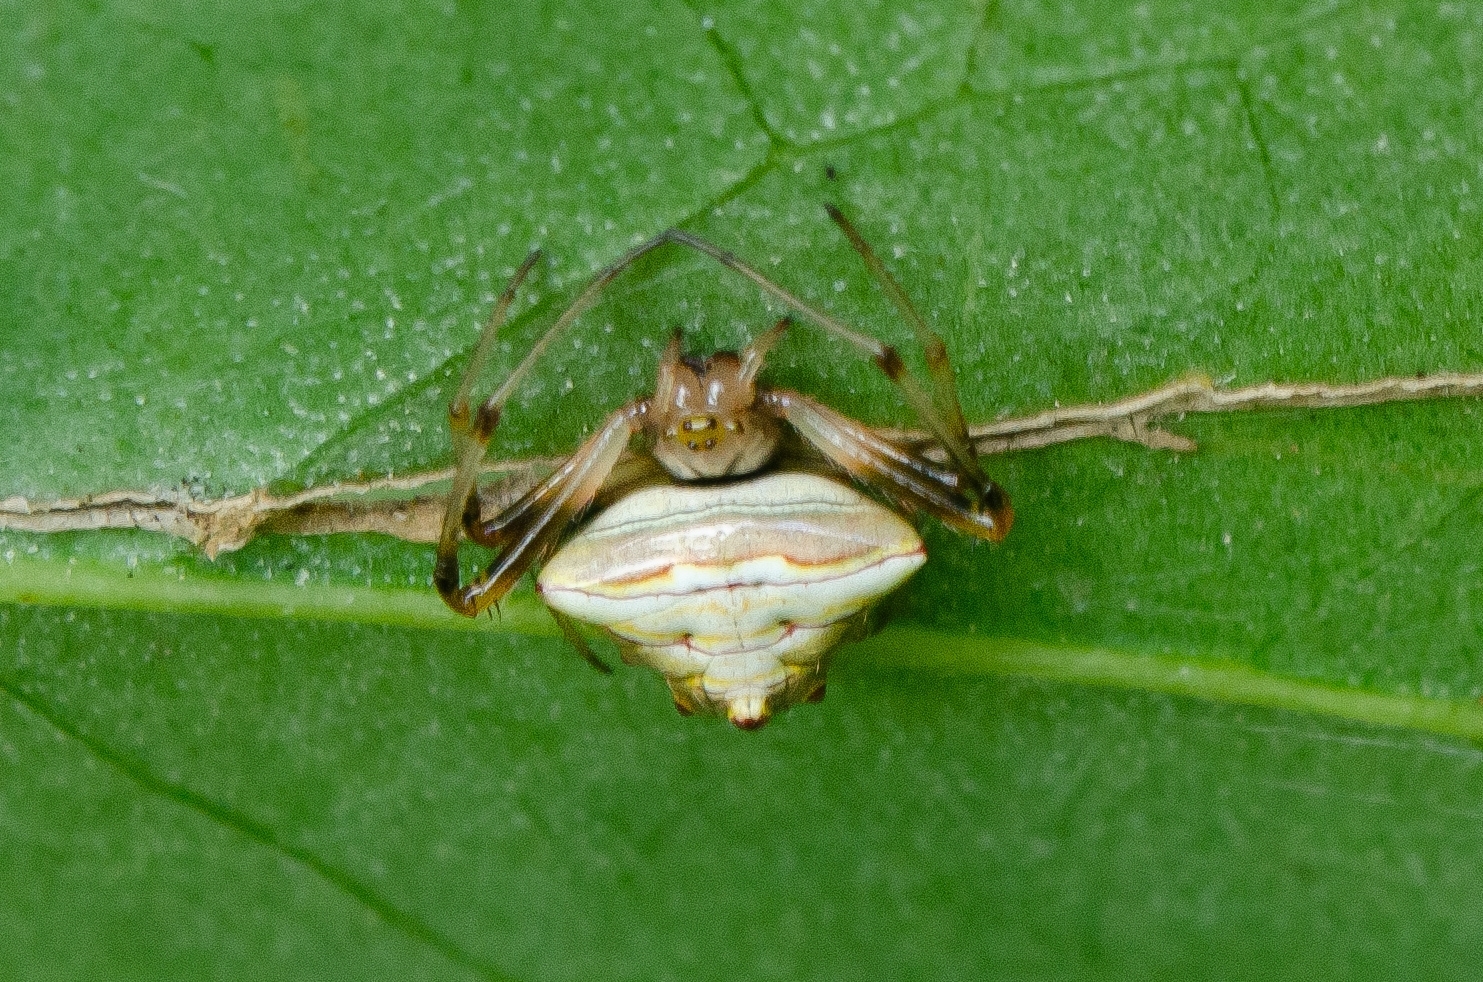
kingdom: Animalia
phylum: Arthropoda
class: Arachnida
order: Araneae
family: Araneidae
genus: Verrucosa
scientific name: Verrucosa undecimvariolata
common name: Orb weavers
